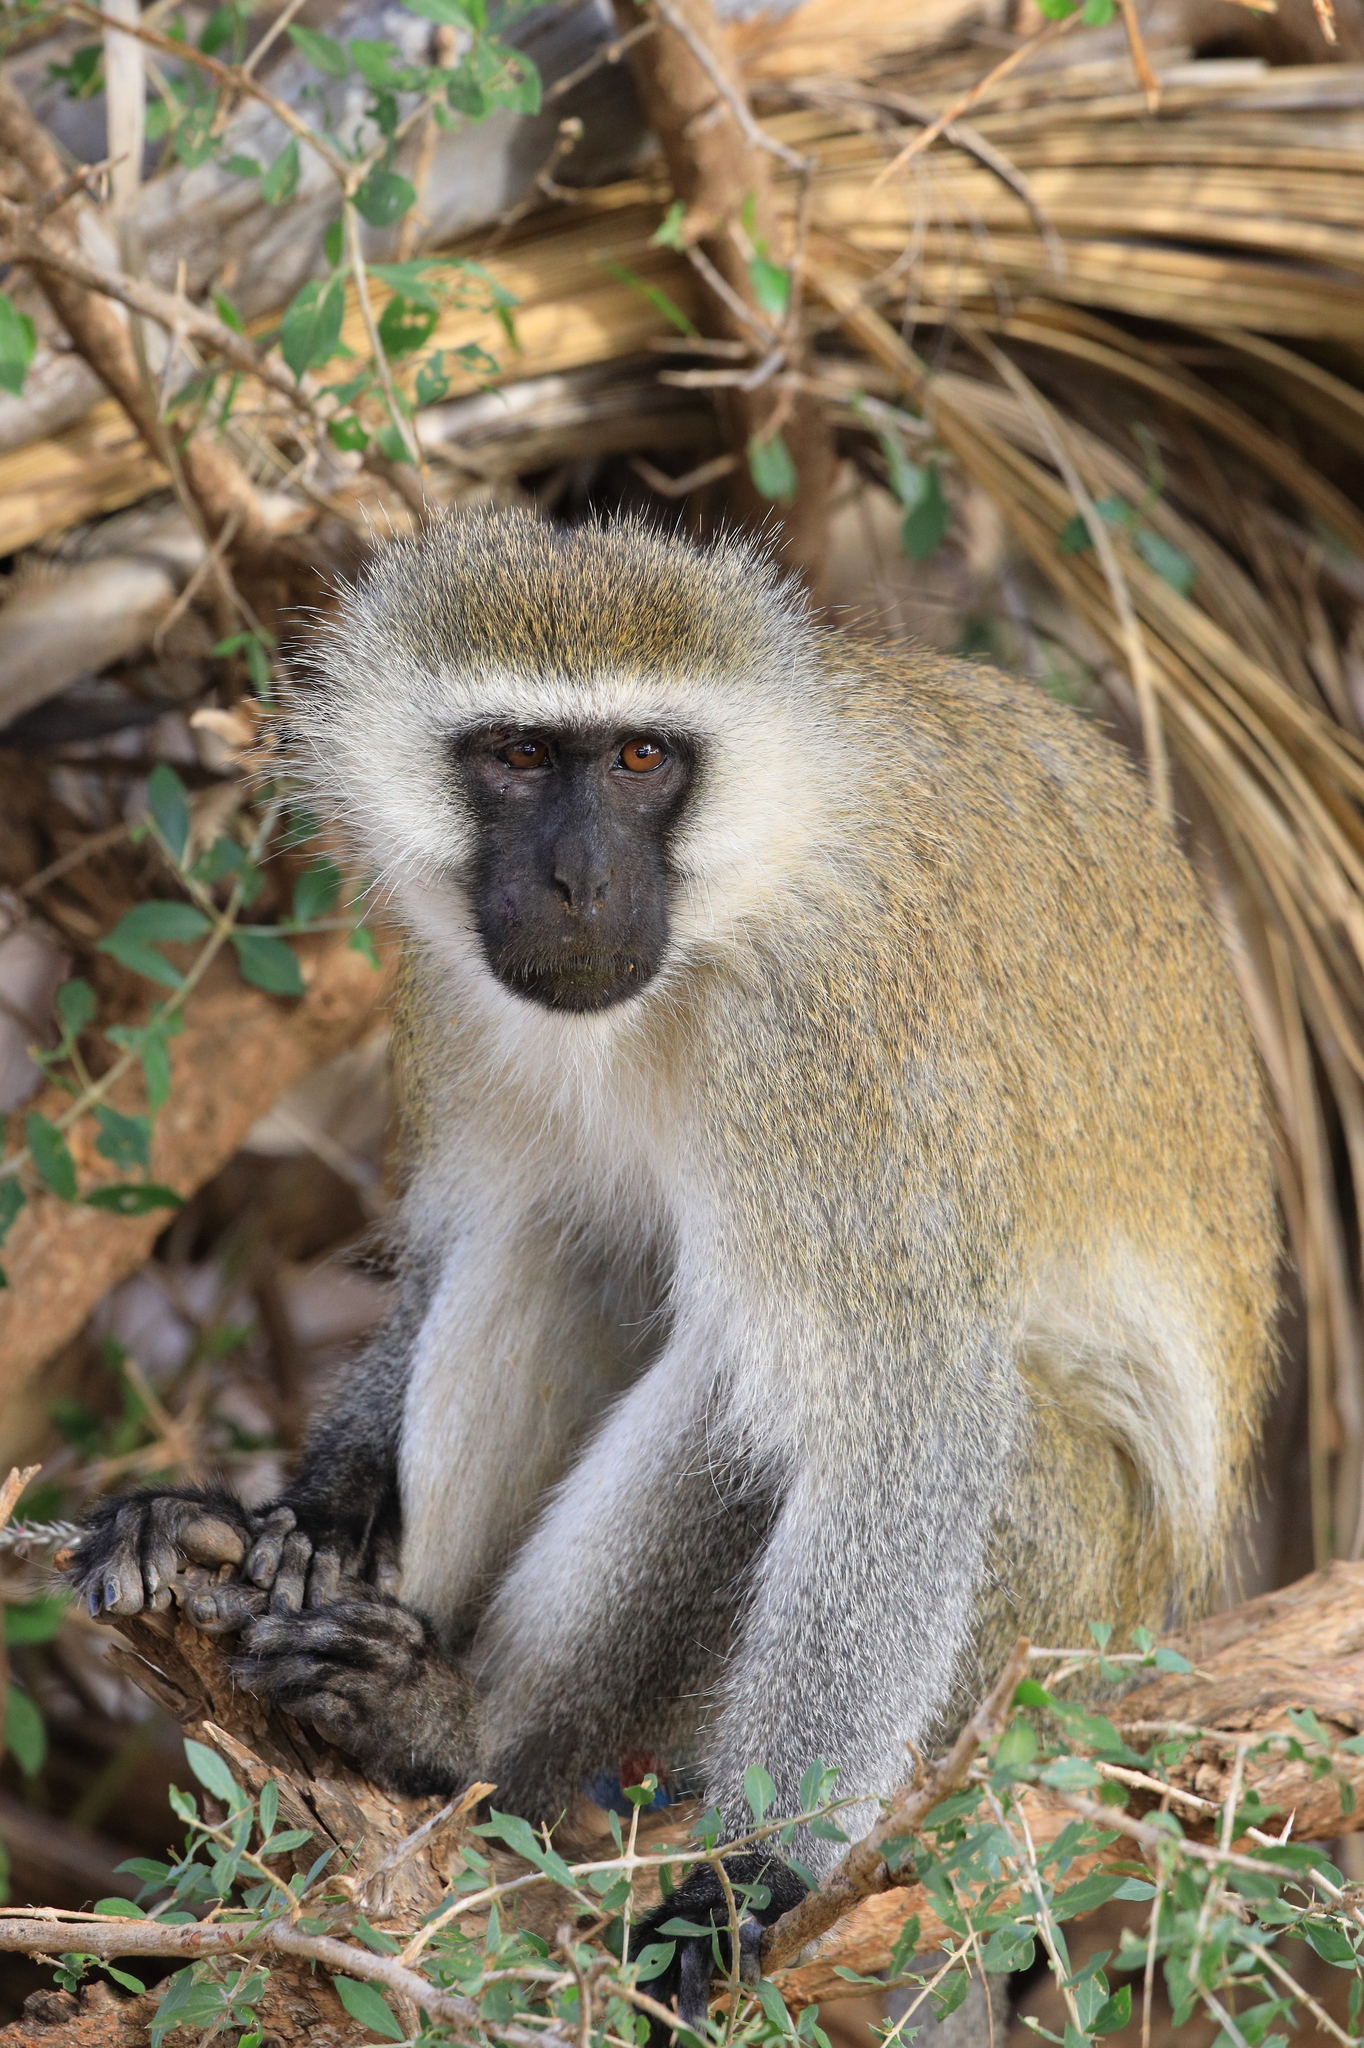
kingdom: Animalia
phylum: Chordata
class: Mammalia
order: Primates
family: Cercopithecidae
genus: Chlorocebus
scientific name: Chlorocebus pygerythrus
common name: Vervet monkey
